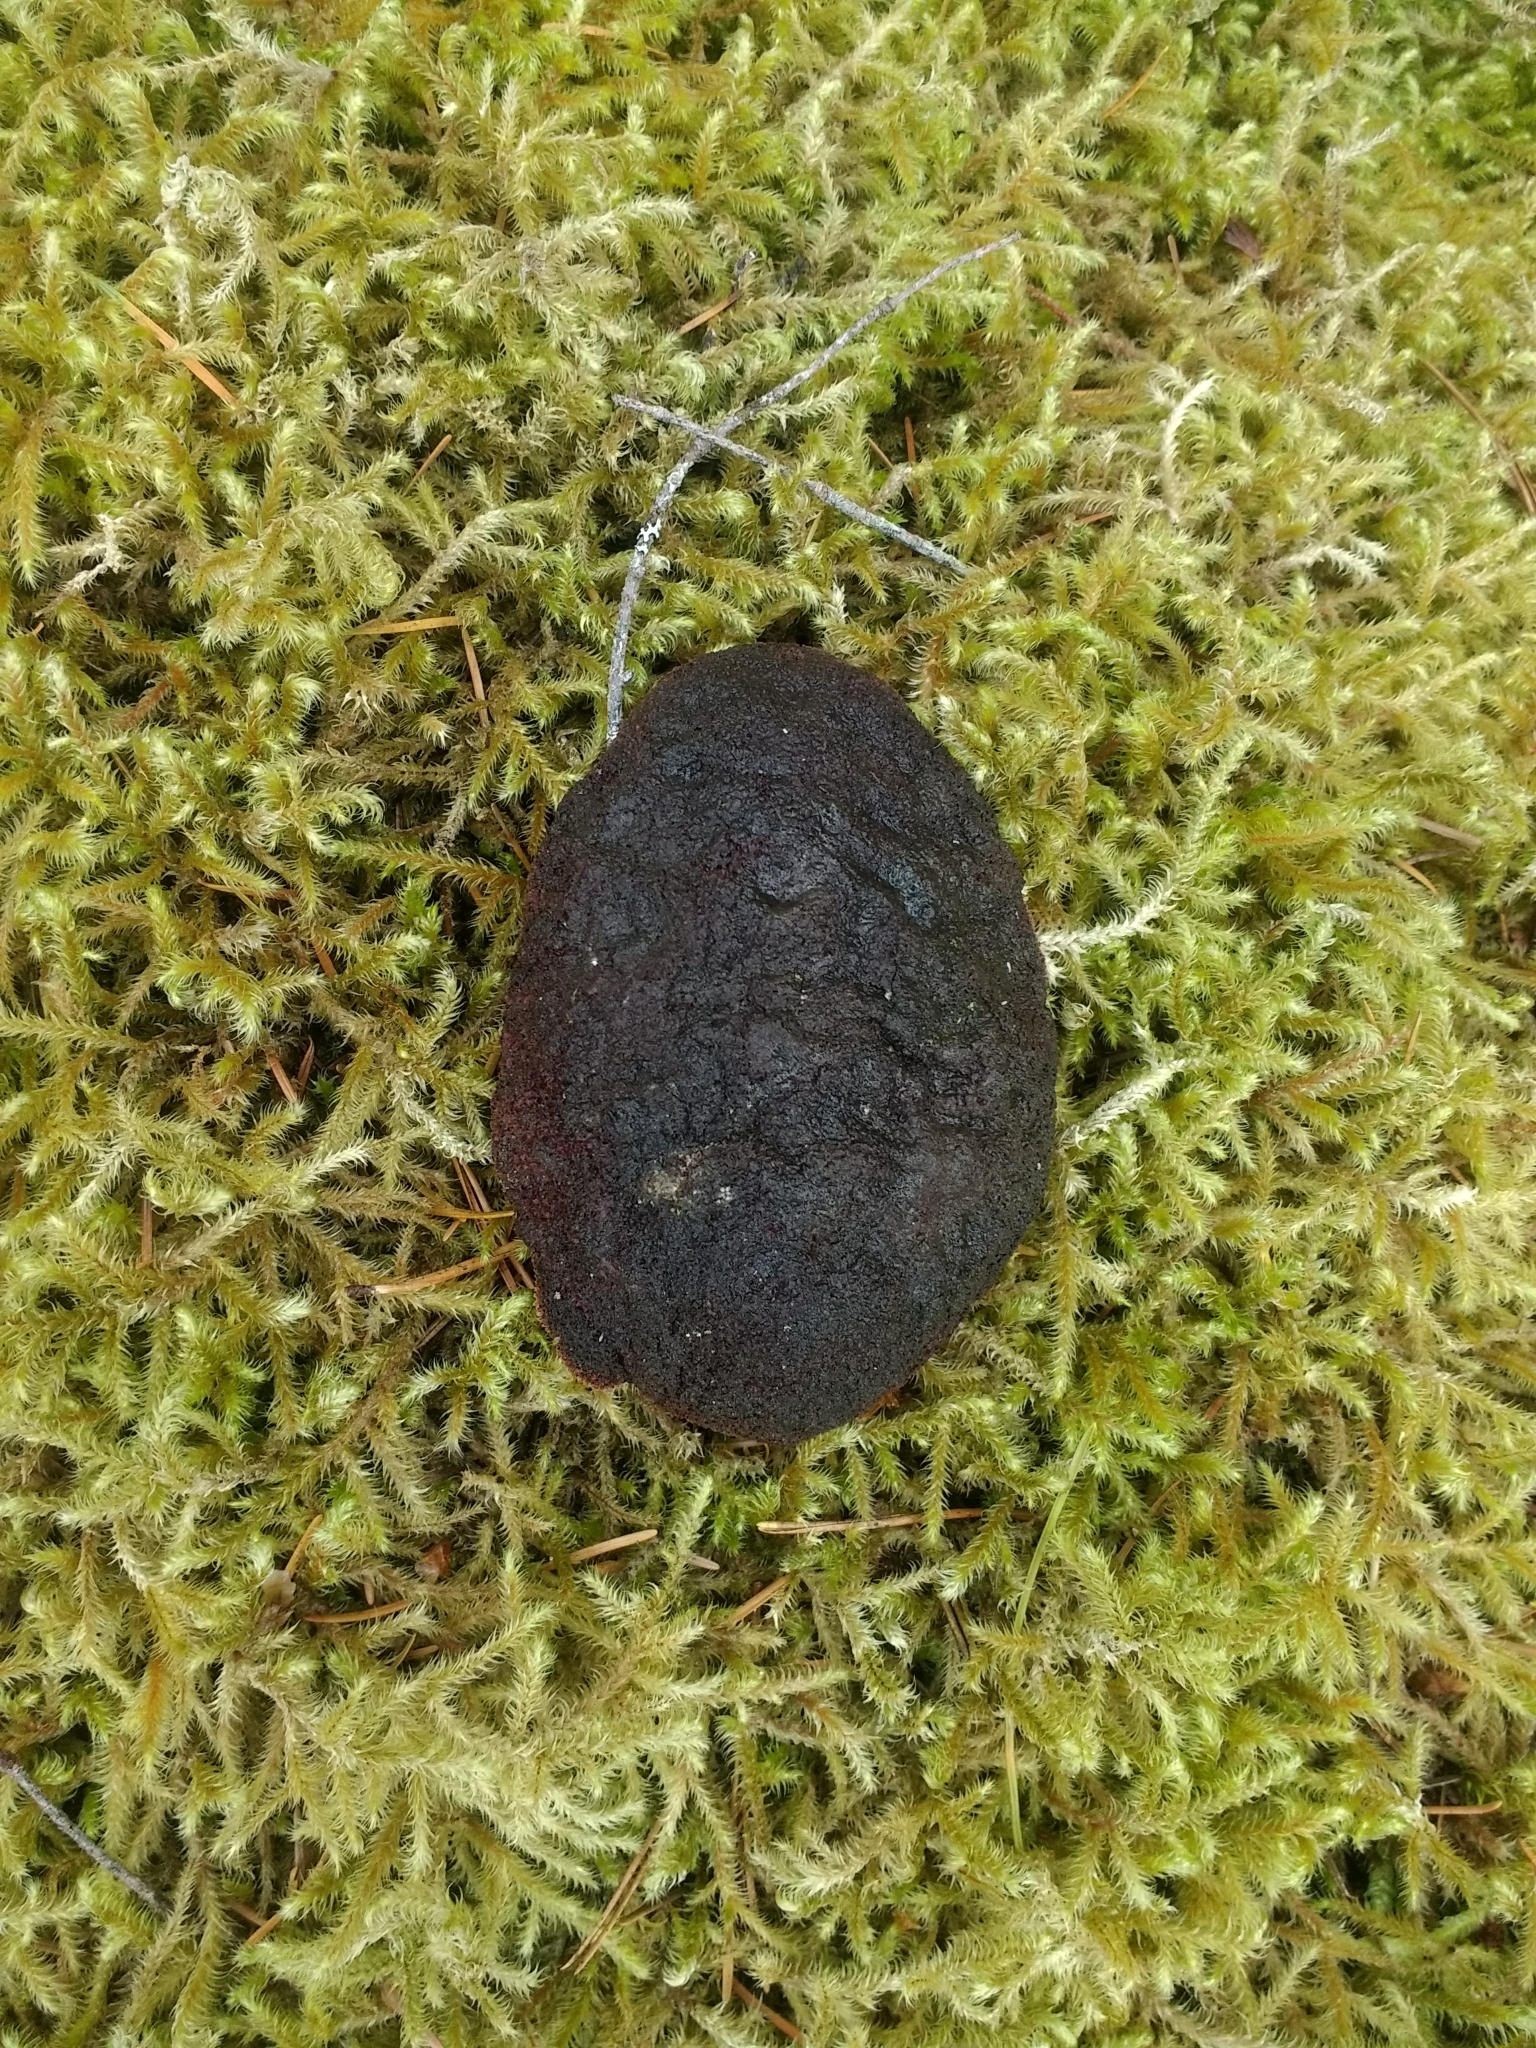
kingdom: Animalia
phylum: Mollusca
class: Polyplacophora
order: Chitonida
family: Acanthochitonidae
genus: Cryptochiton
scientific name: Cryptochiton stelleri
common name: Giant pacific chiton
